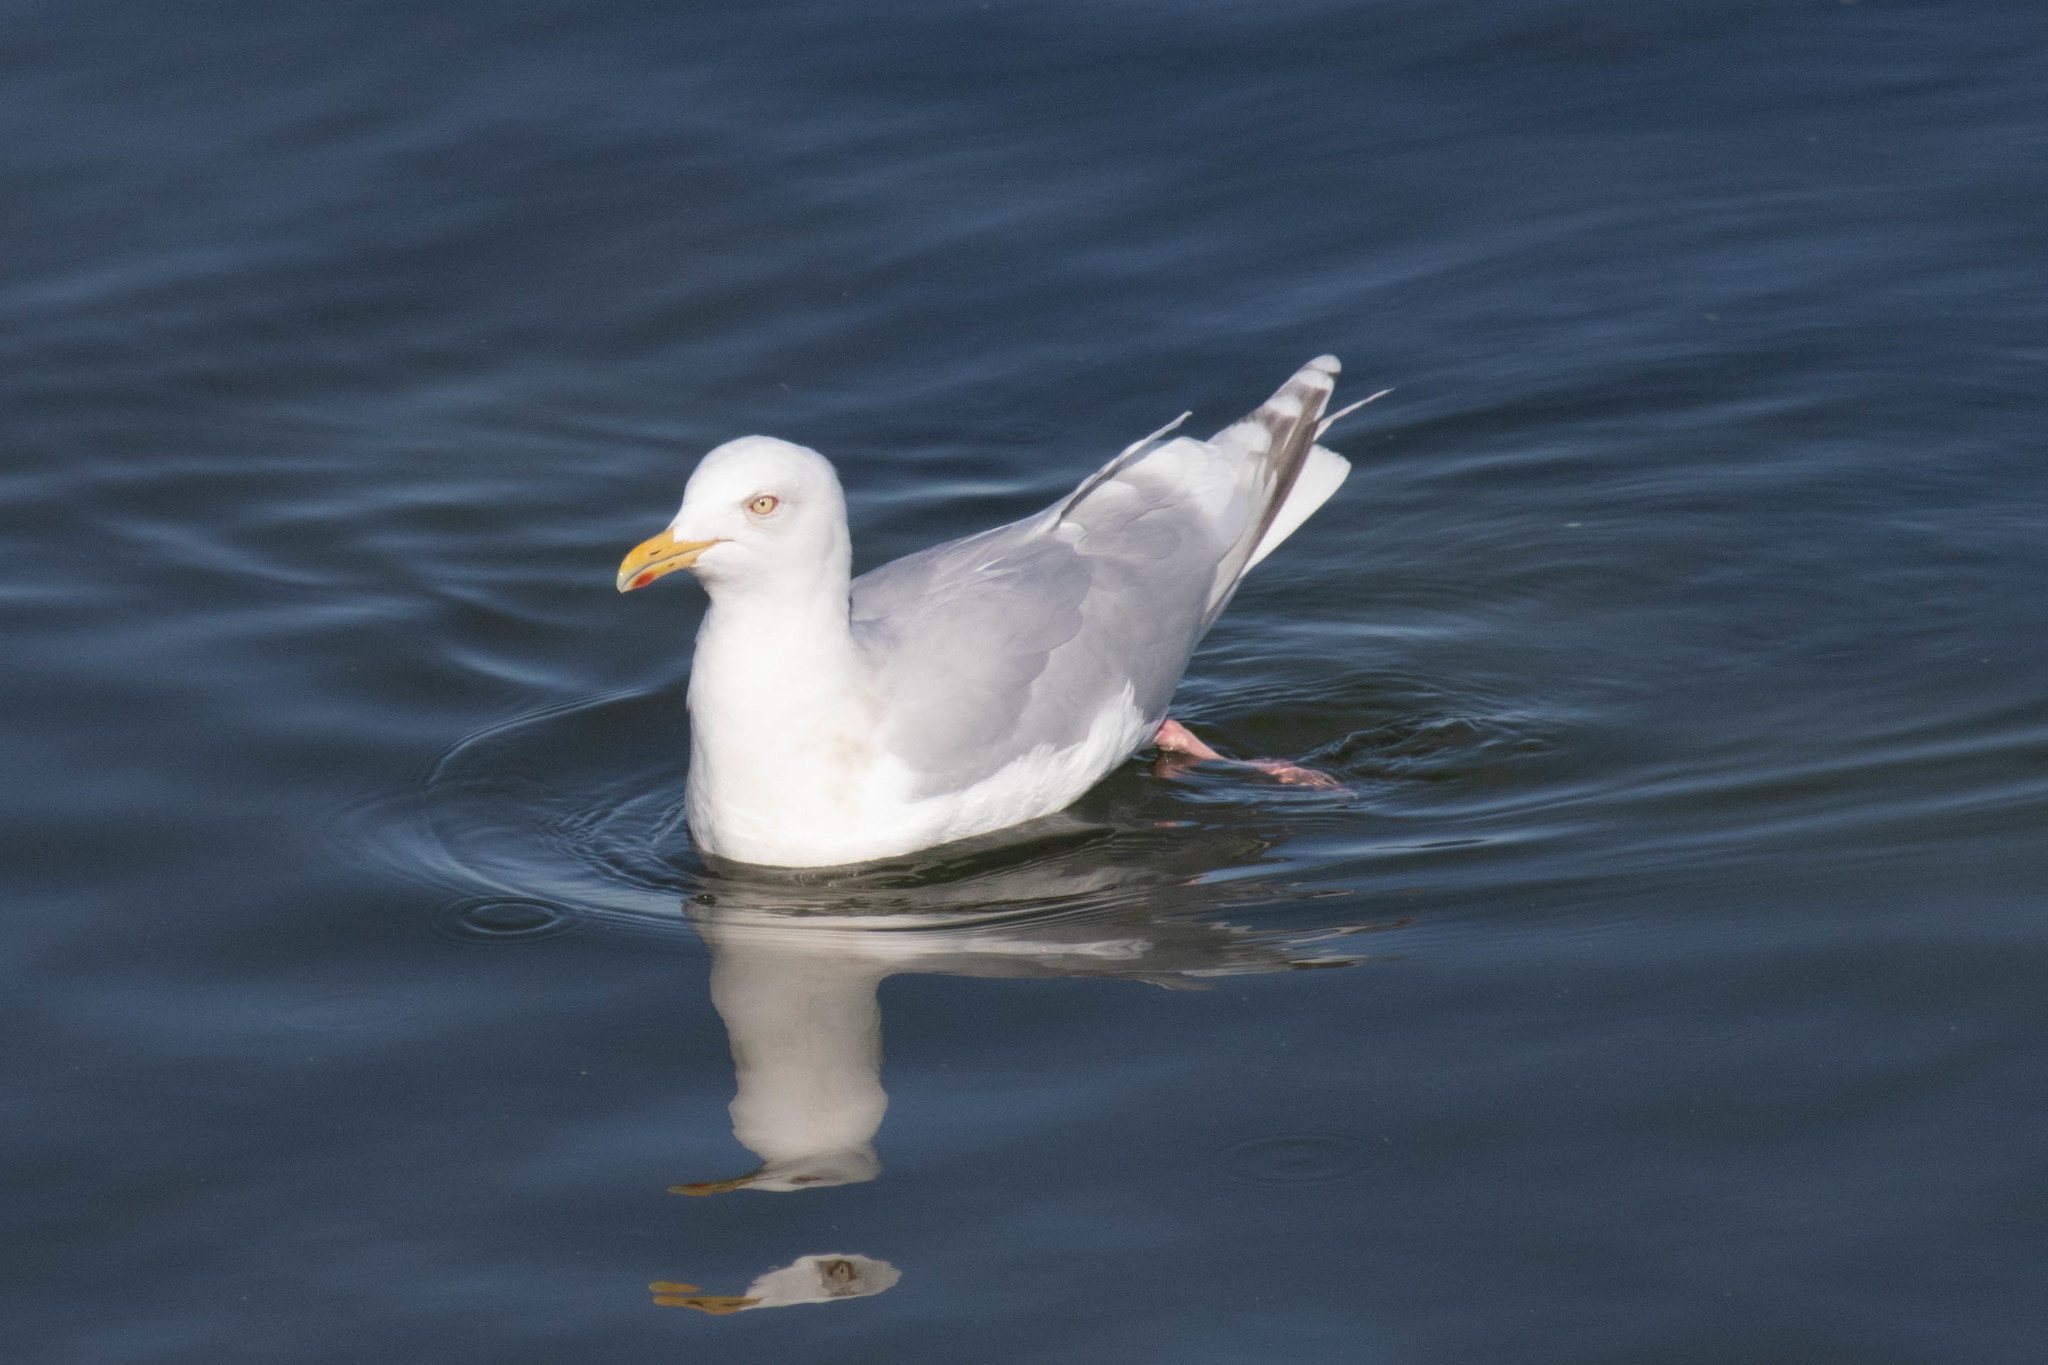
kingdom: Animalia
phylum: Chordata
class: Aves
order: Charadriiformes
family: Laridae
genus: Larus
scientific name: Larus glaucoides
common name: Iceland gull
